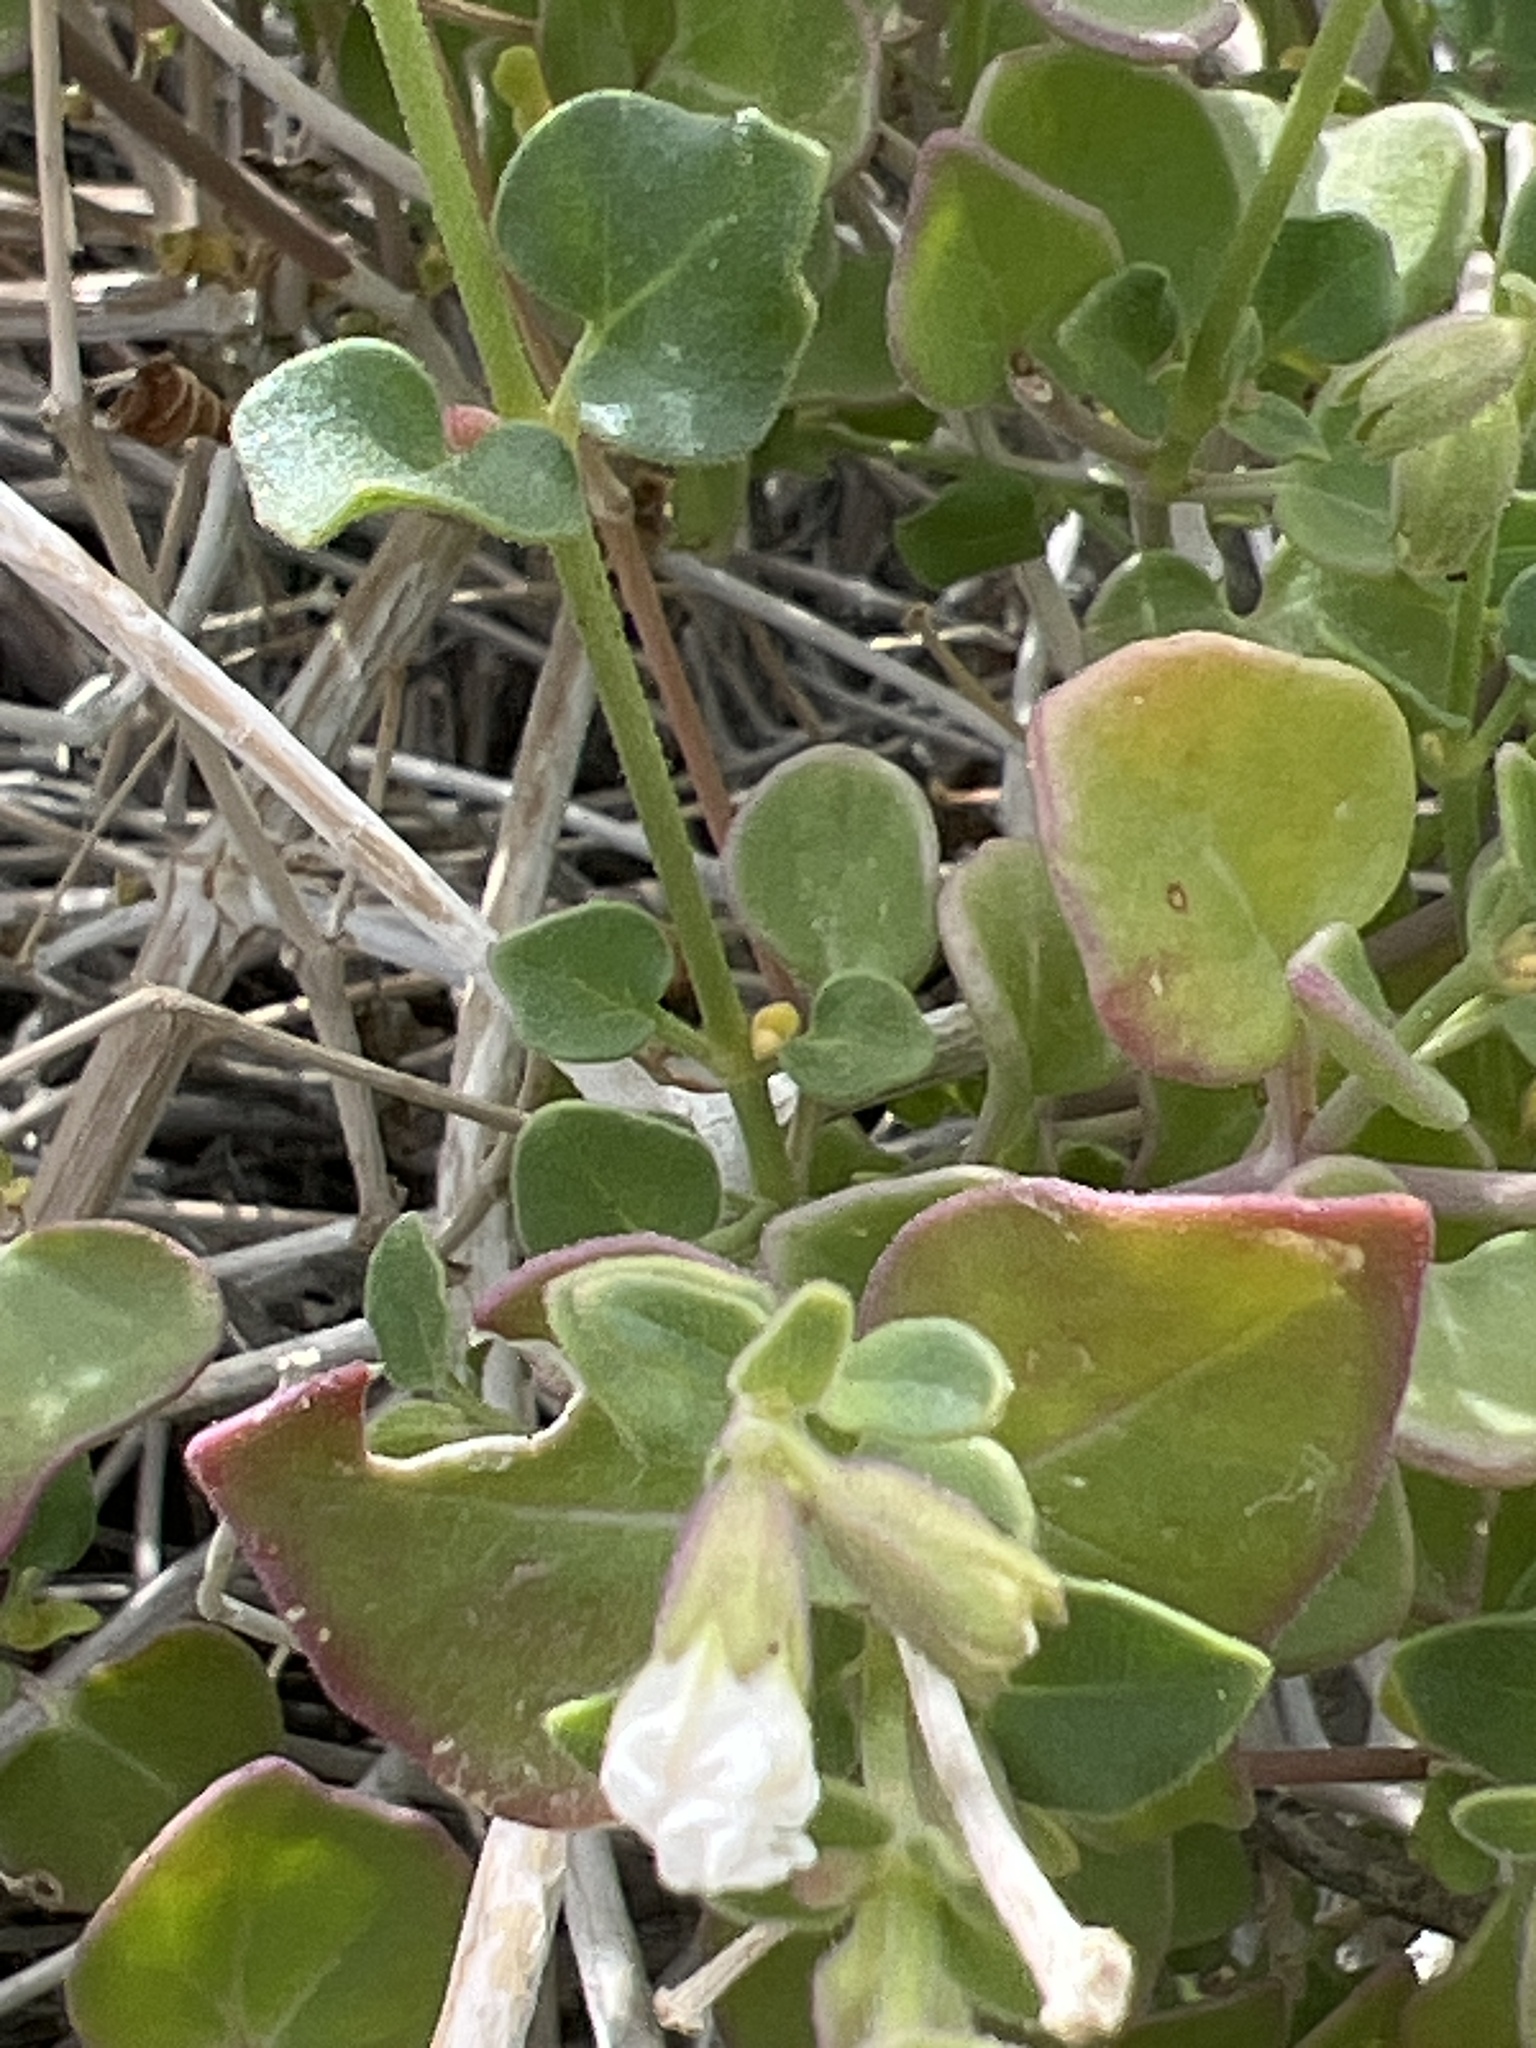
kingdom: Plantae
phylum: Tracheophyta
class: Magnoliopsida
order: Caryophyllales
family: Nyctaginaceae
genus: Mirabilis
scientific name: Mirabilis tenuiloba
